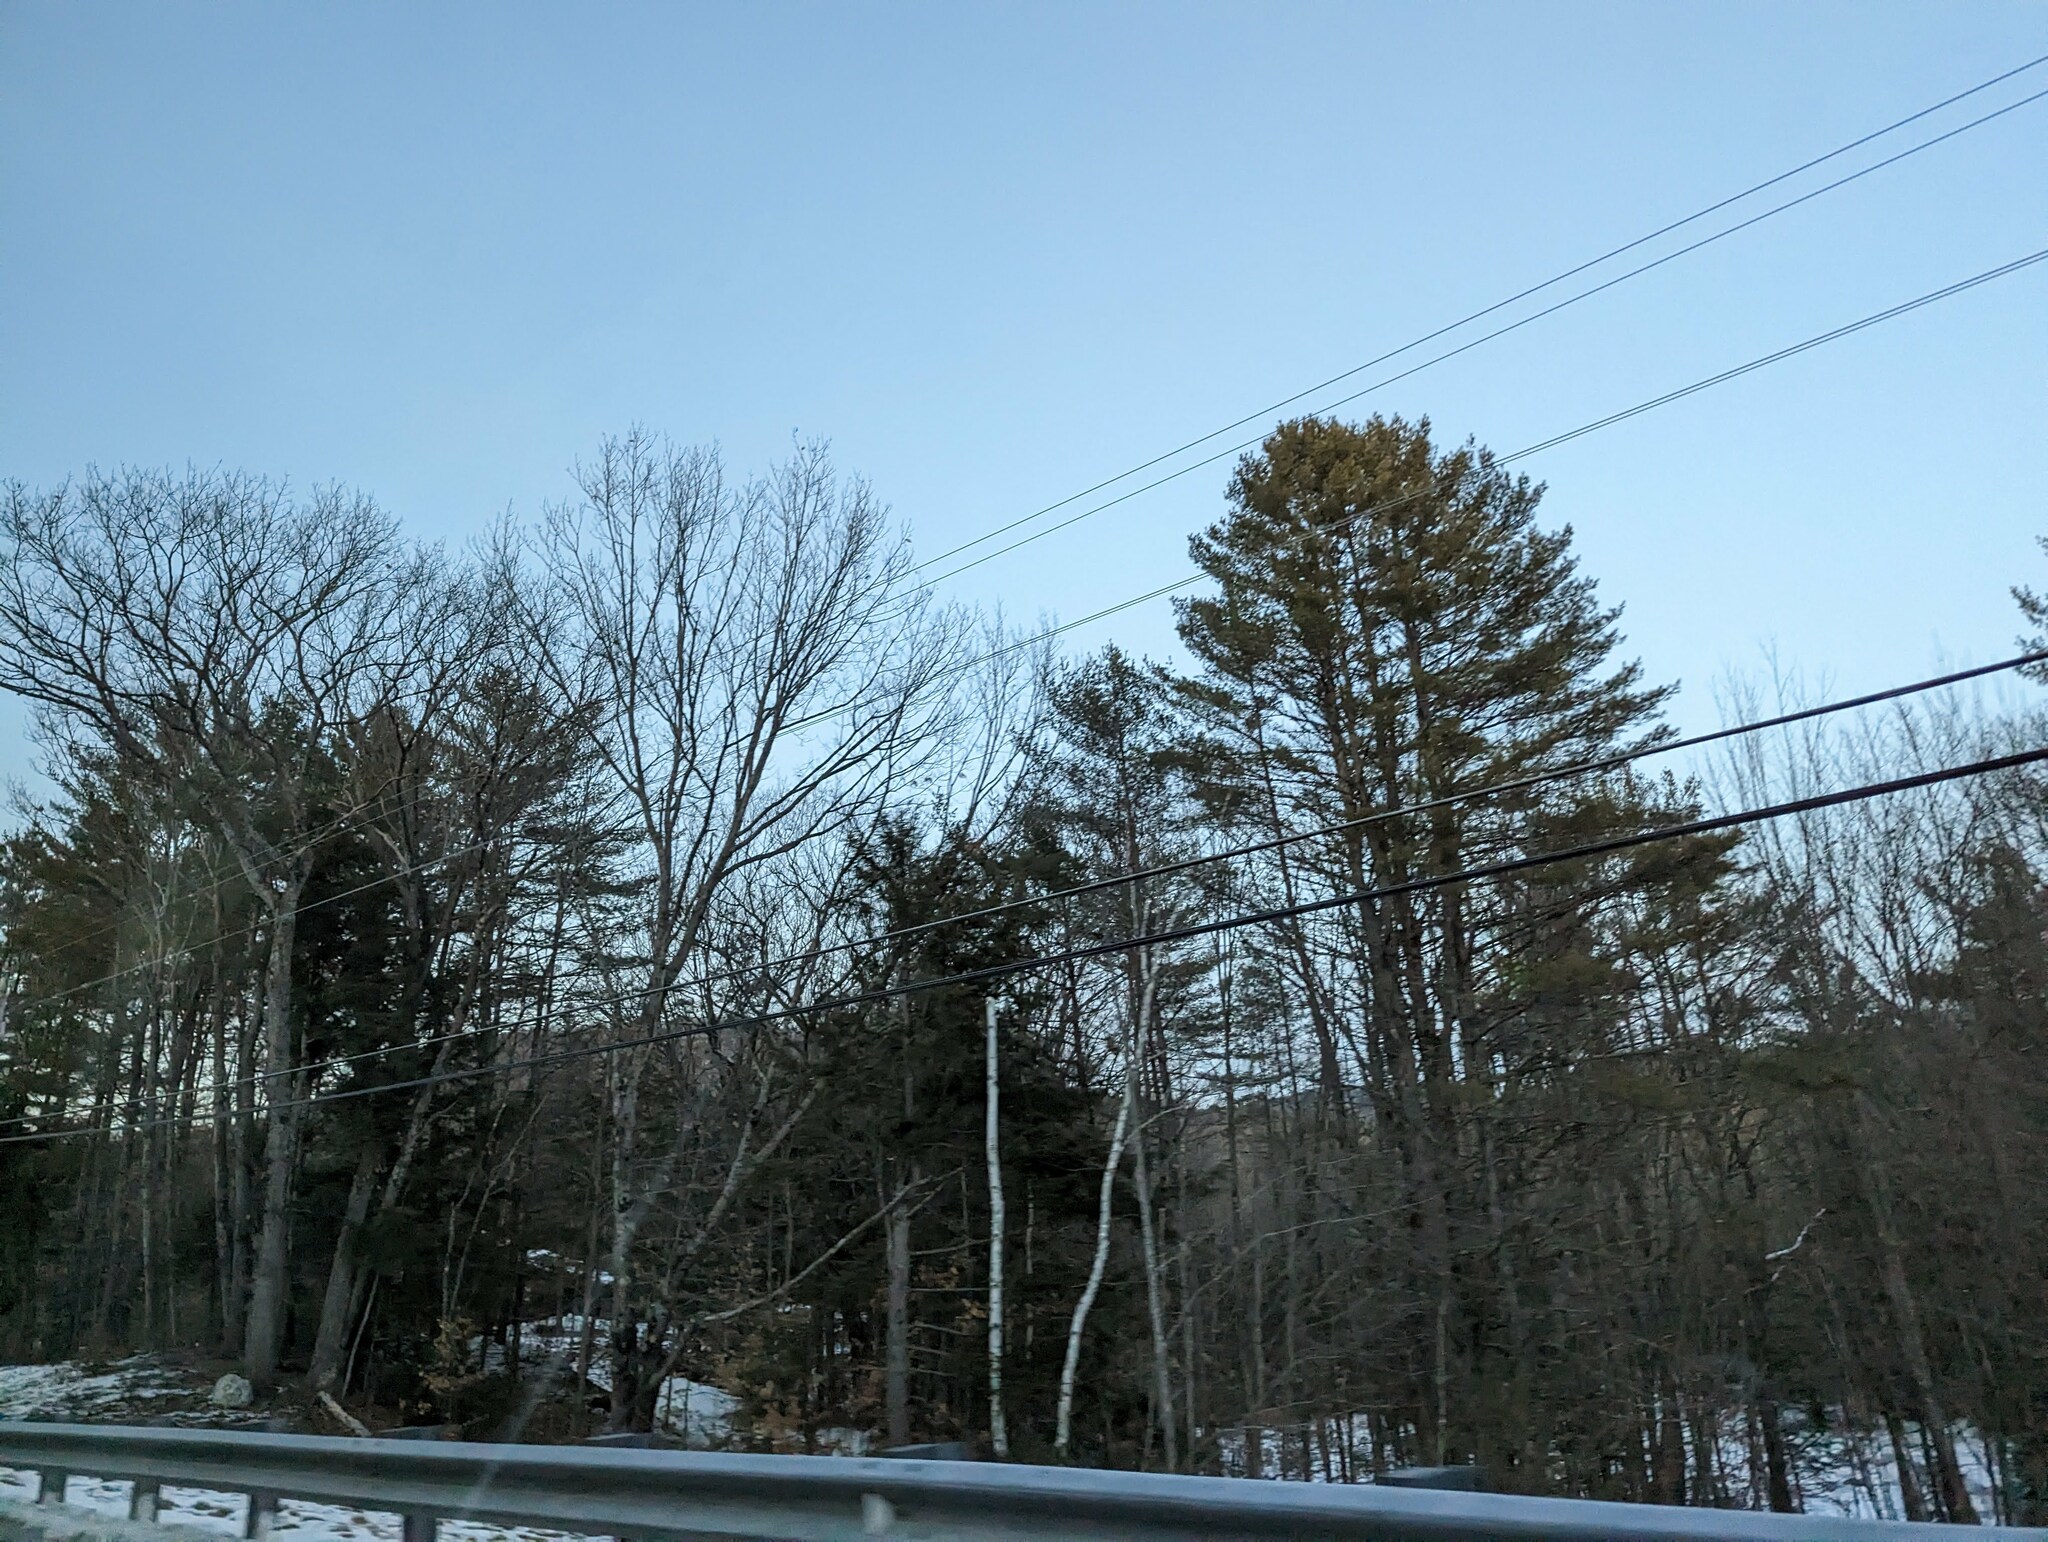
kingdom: Plantae
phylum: Tracheophyta
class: Pinopsida
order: Pinales
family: Pinaceae
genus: Pinus
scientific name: Pinus strobus
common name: Weymouth pine
